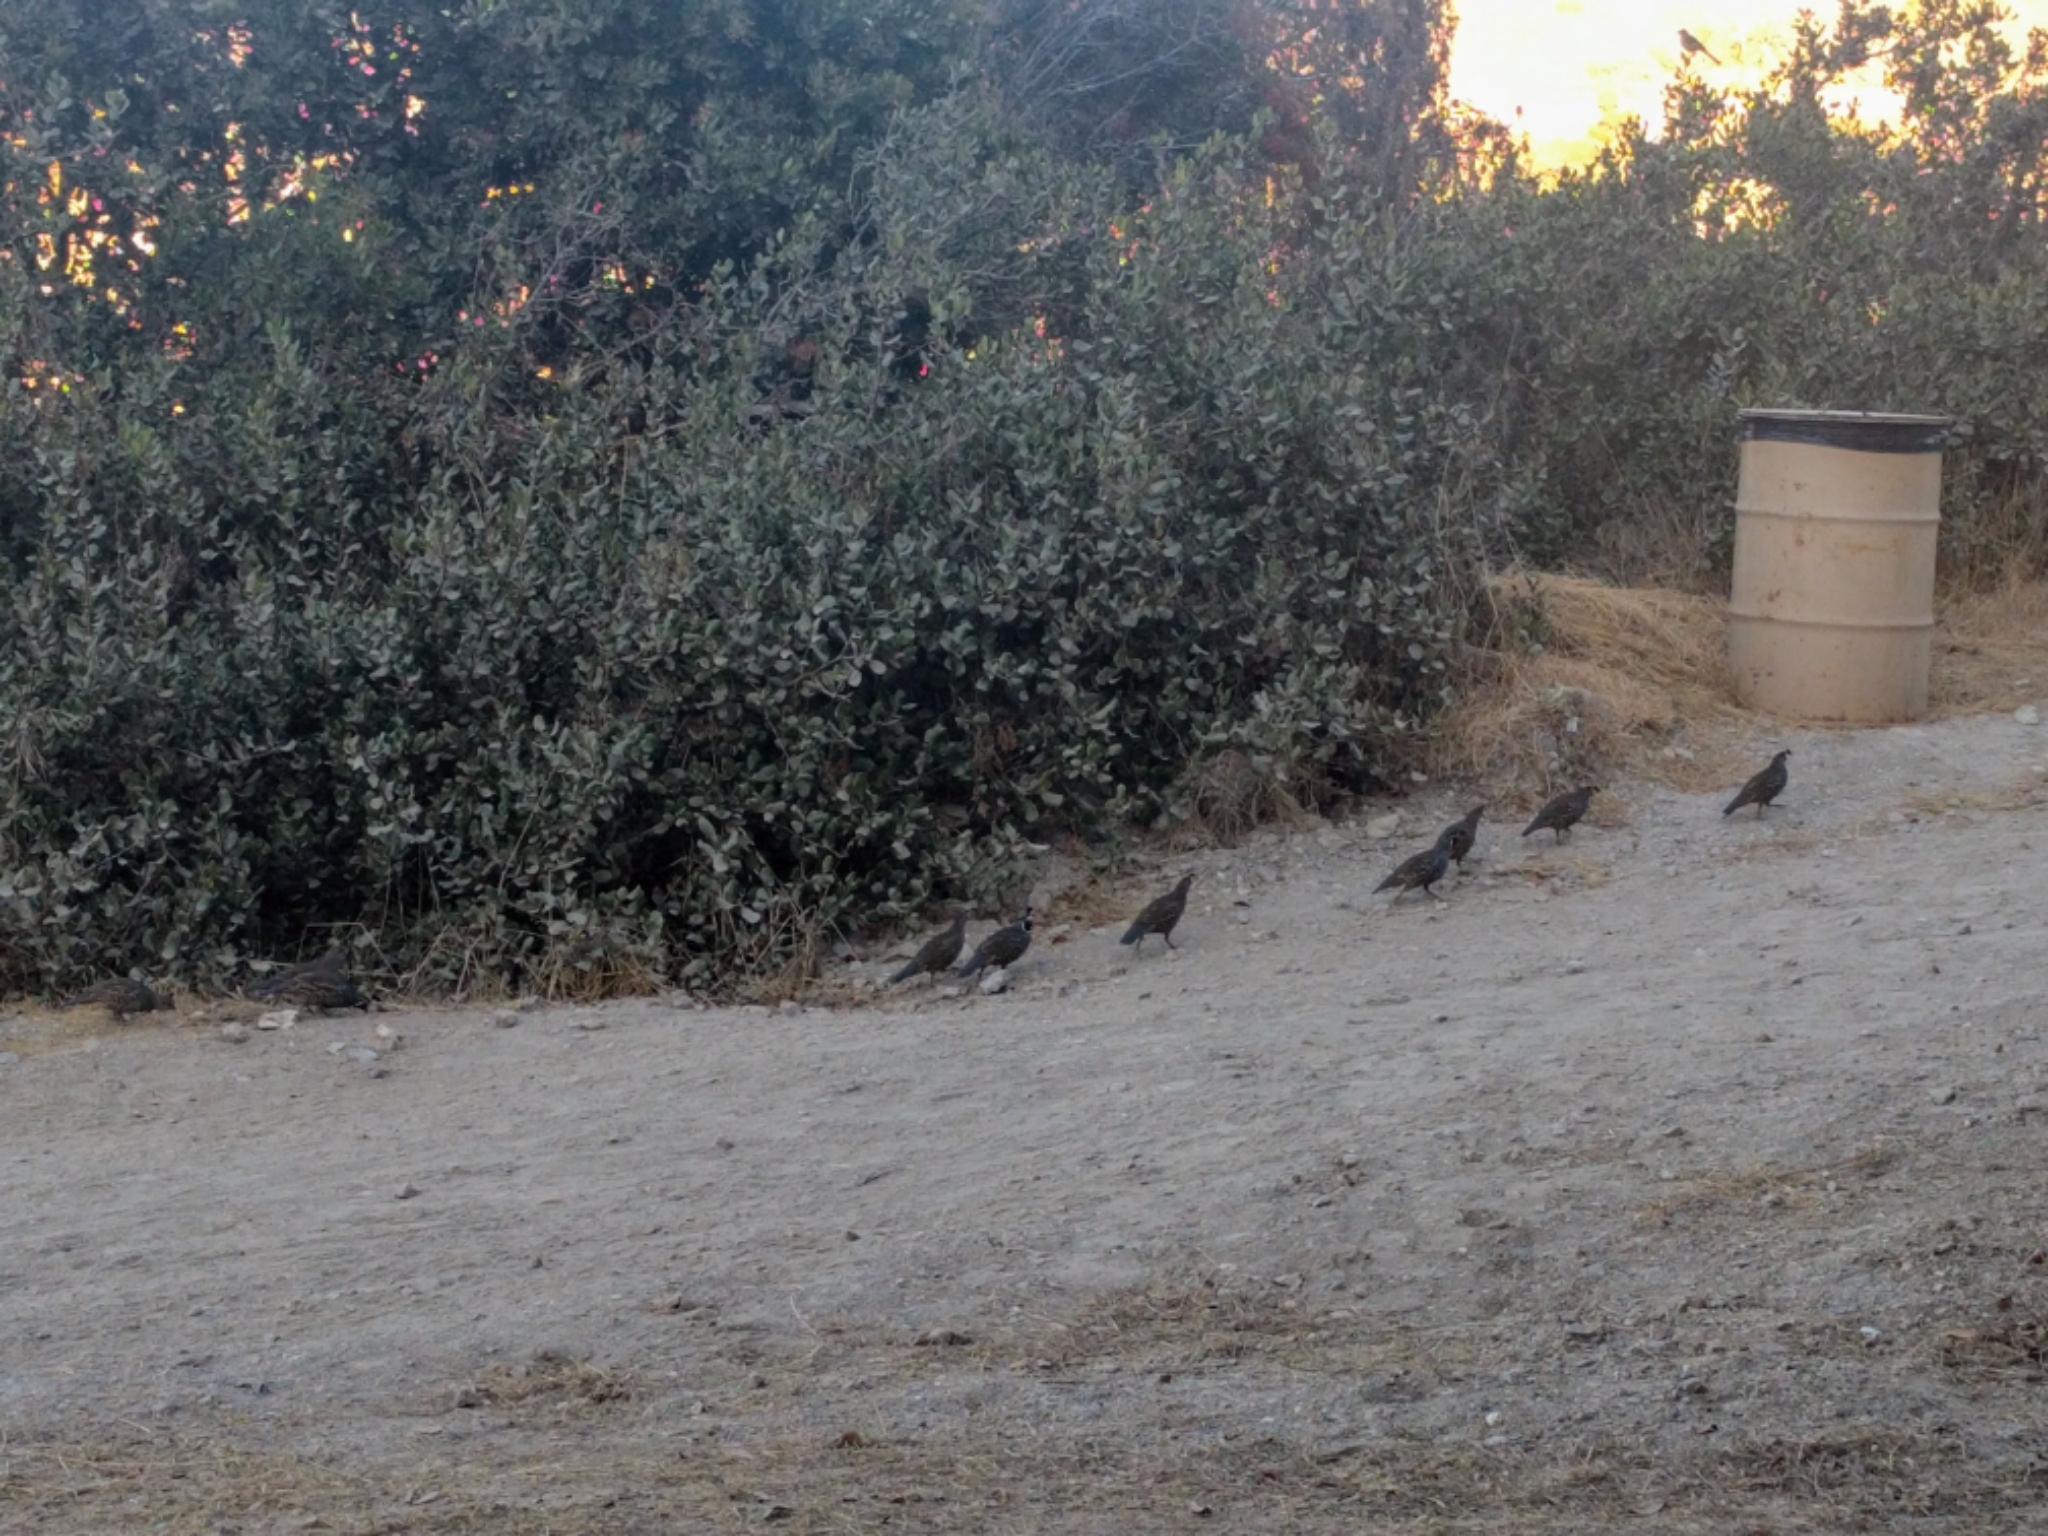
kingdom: Animalia
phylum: Chordata
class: Aves
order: Galliformes
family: Odontophoridae
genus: Callipepla
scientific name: Callipepla californica
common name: California quail
